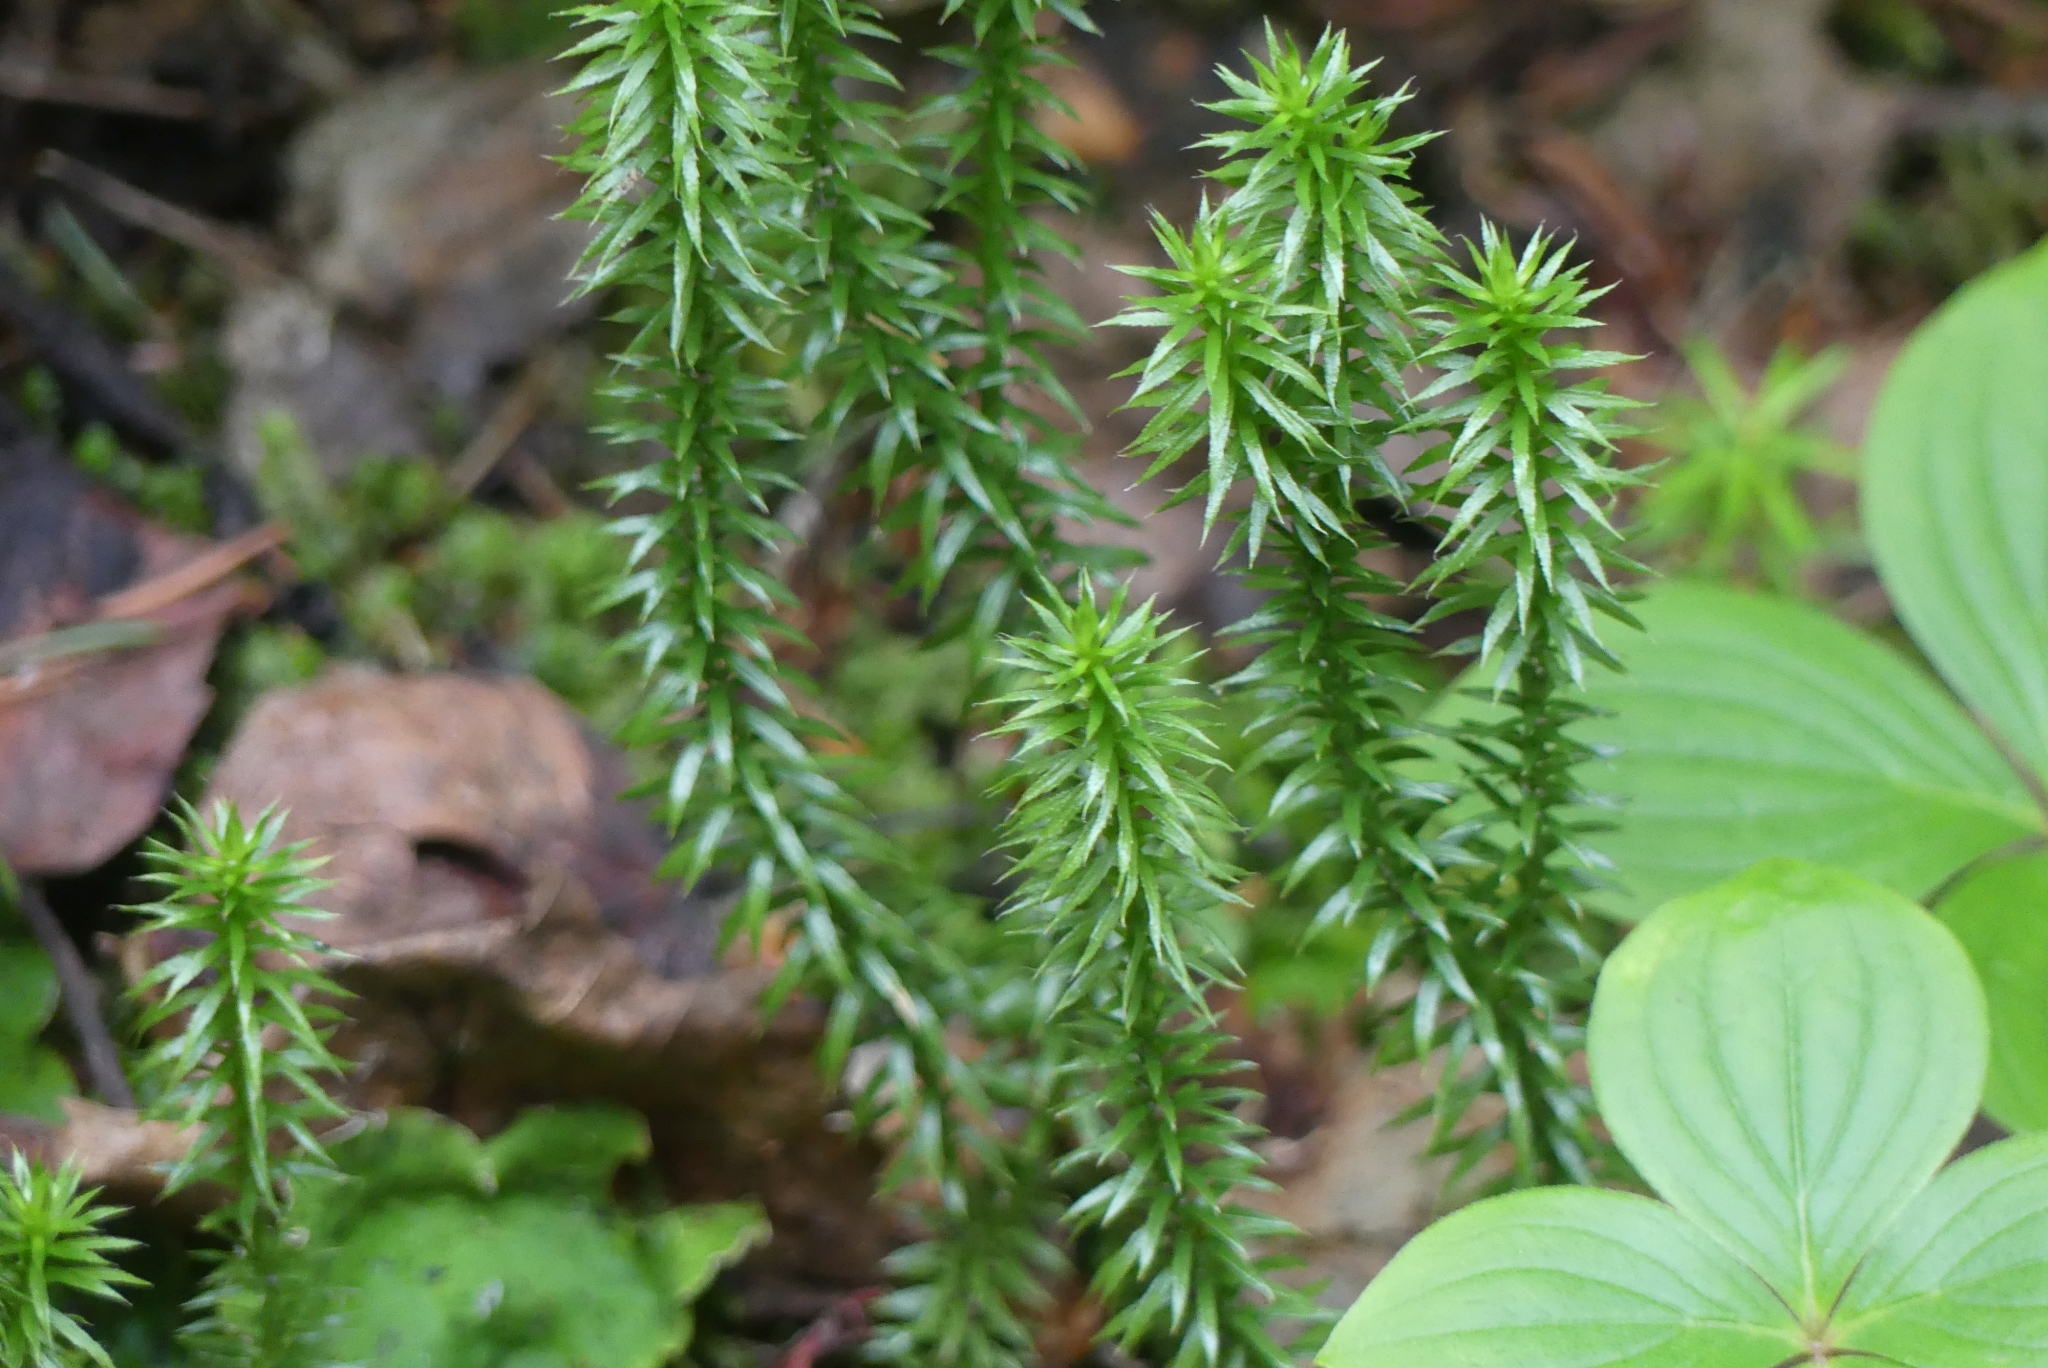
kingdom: Plantae
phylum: Tracheophyta
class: Lycopodiopsida
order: Lycopodiales
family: Lycopodiaceae
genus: Spinulum
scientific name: Spinulum annotinum
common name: Interrupted club-moss
